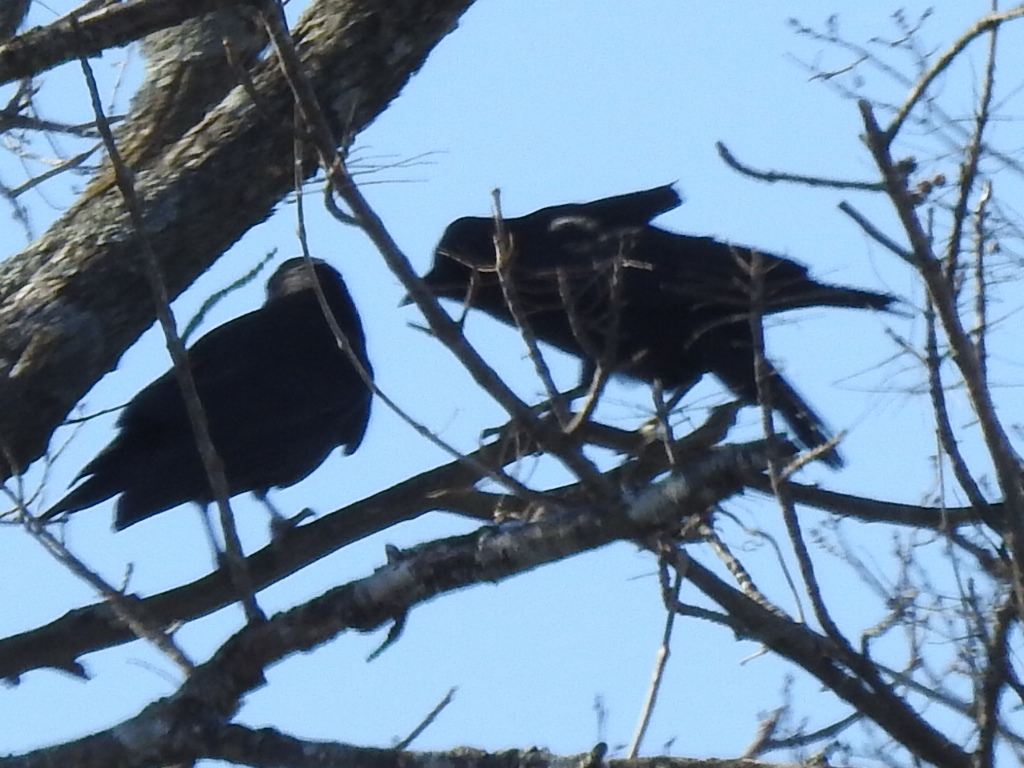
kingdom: Animalia
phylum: Chordata
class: Aves
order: Passeriformes
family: Corvidae
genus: Corvus
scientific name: Corvus brachyrhynchos
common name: American crow
